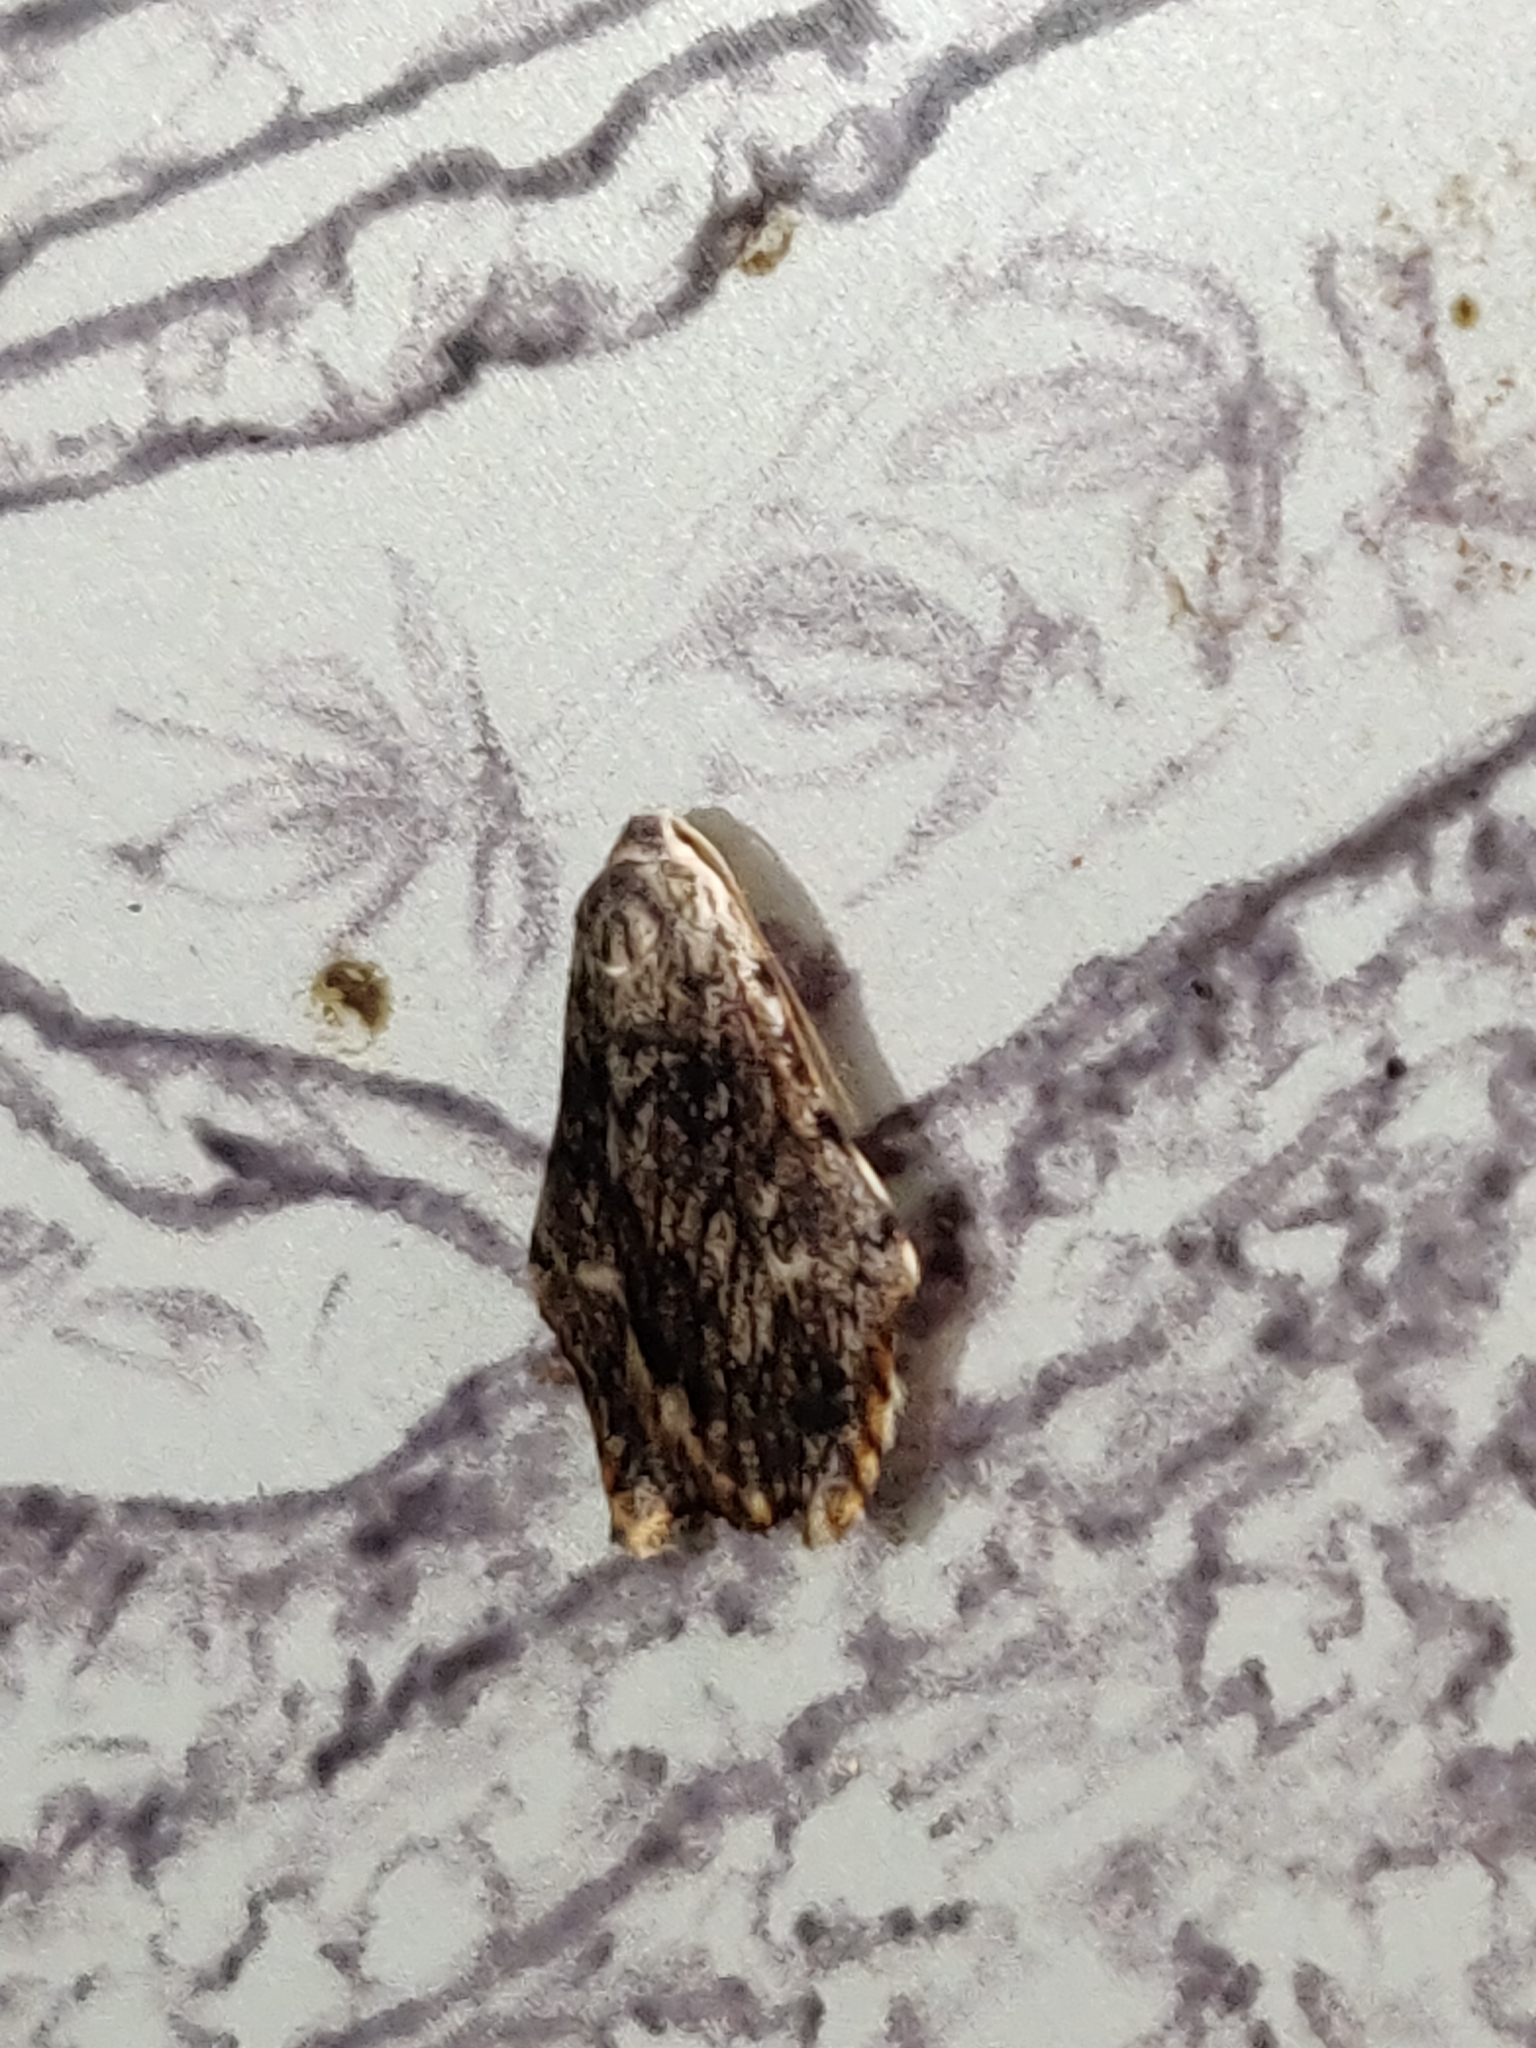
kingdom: Animalia
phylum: Arthropoda
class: Insecta
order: Lepidoptera
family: Erebidae
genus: Macaduma
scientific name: Macaduma toxophora
